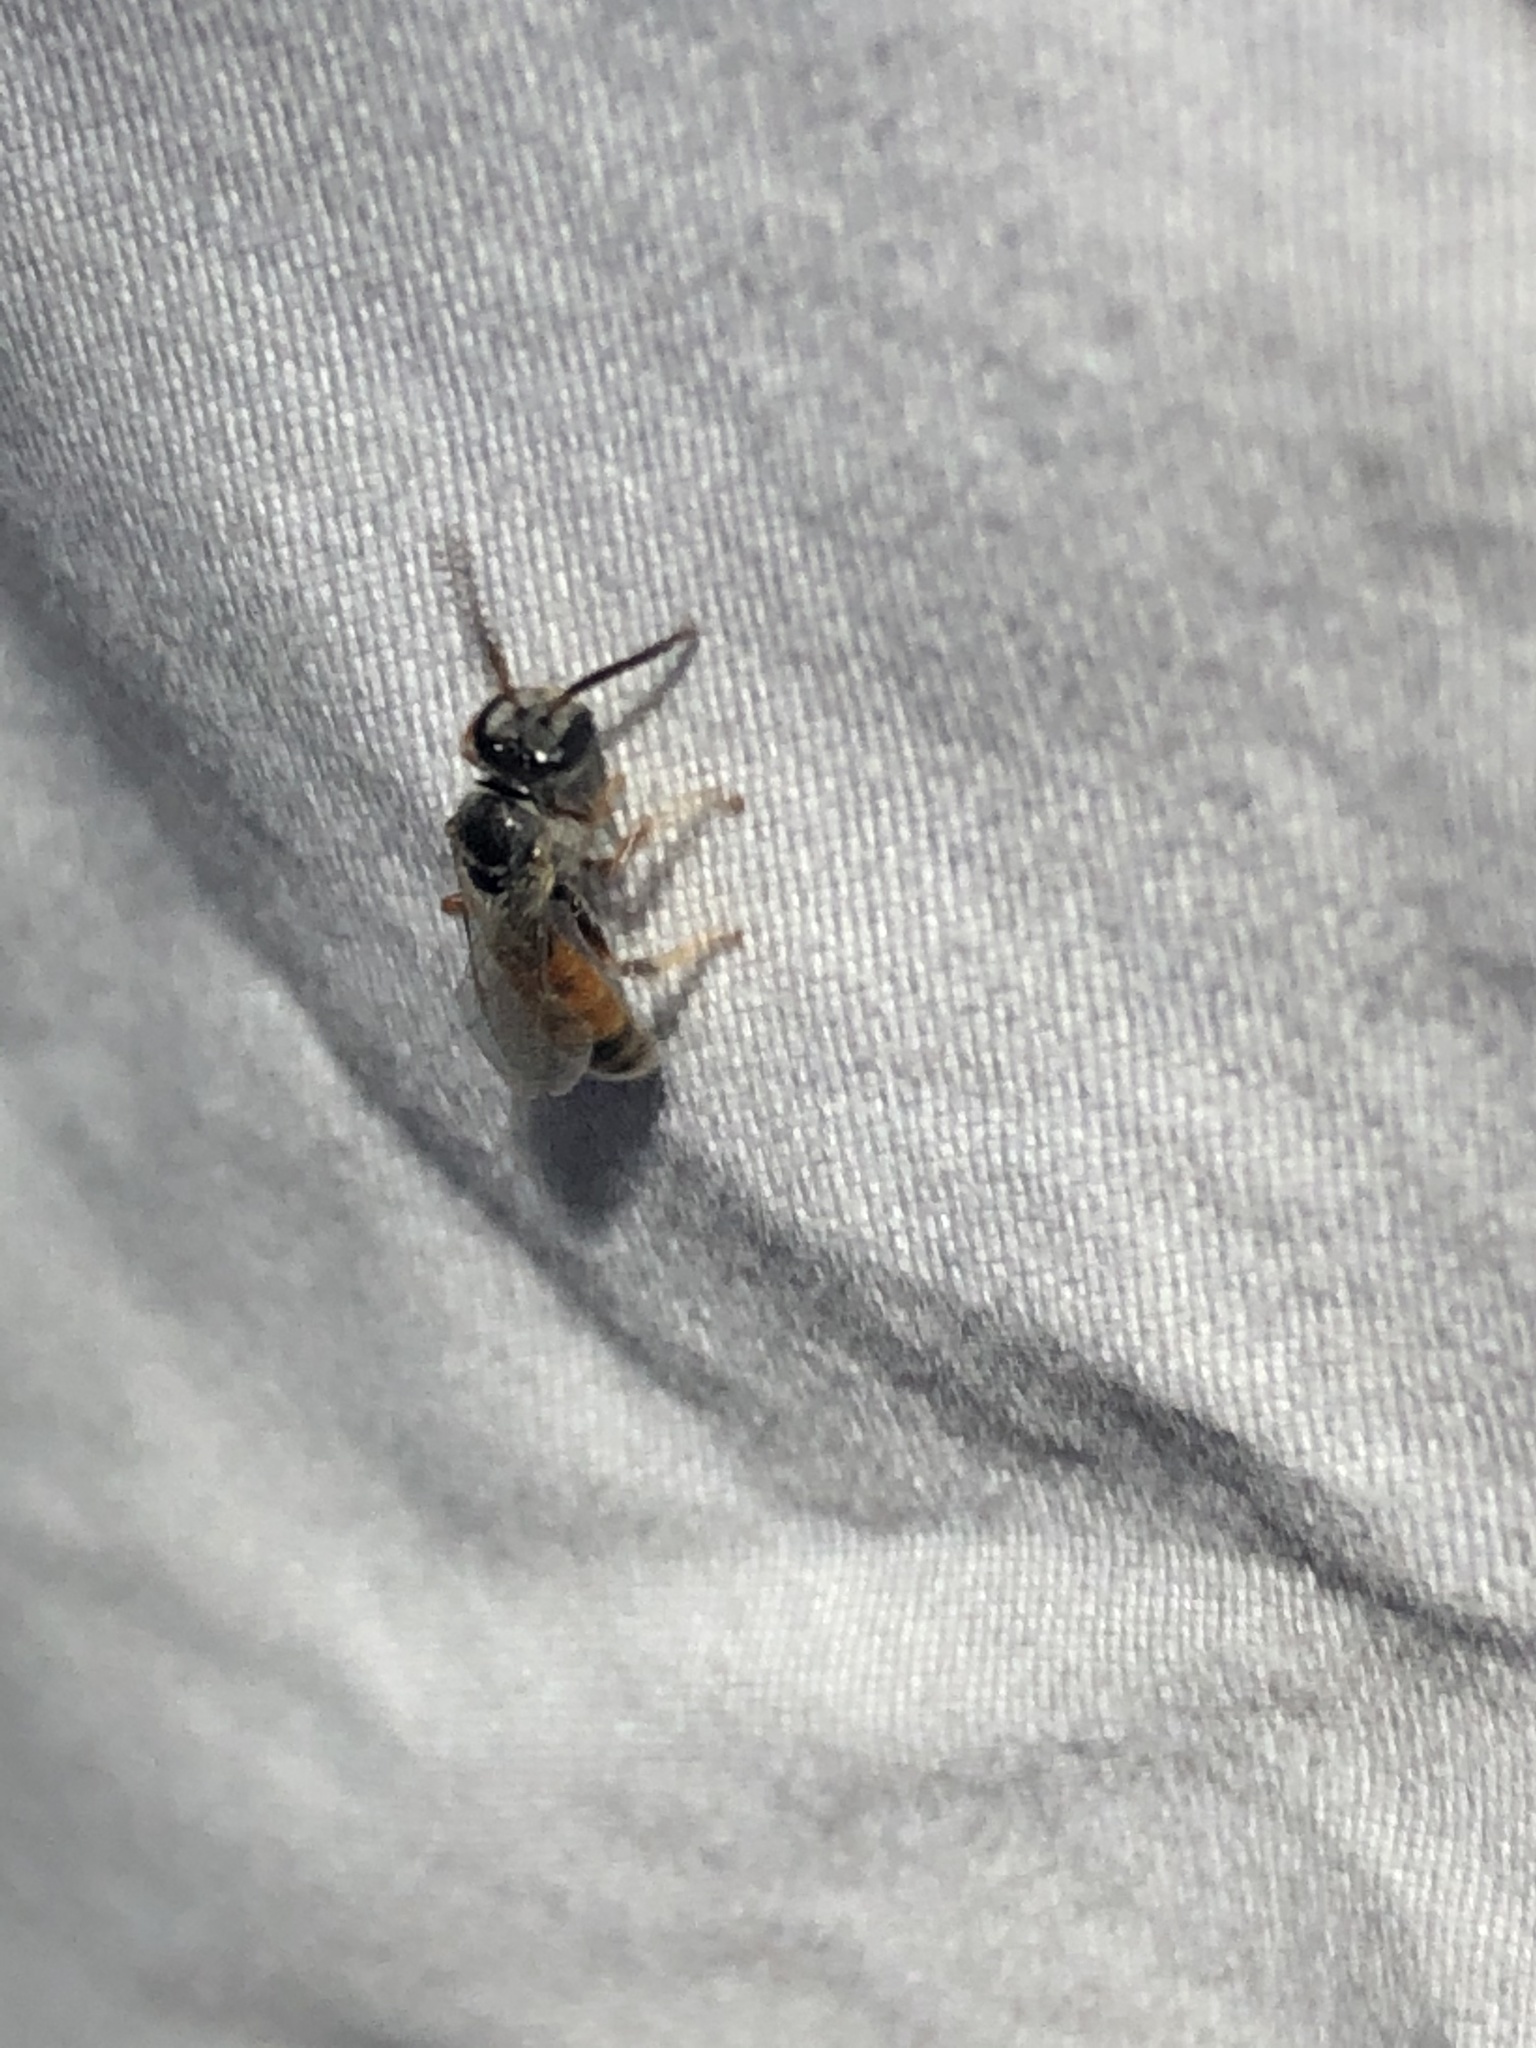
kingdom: Animalia
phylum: Arthropoda
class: Insecta
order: Hymenoptera
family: Halictidae
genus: Sphecodogastra
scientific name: Sphecodogastra
